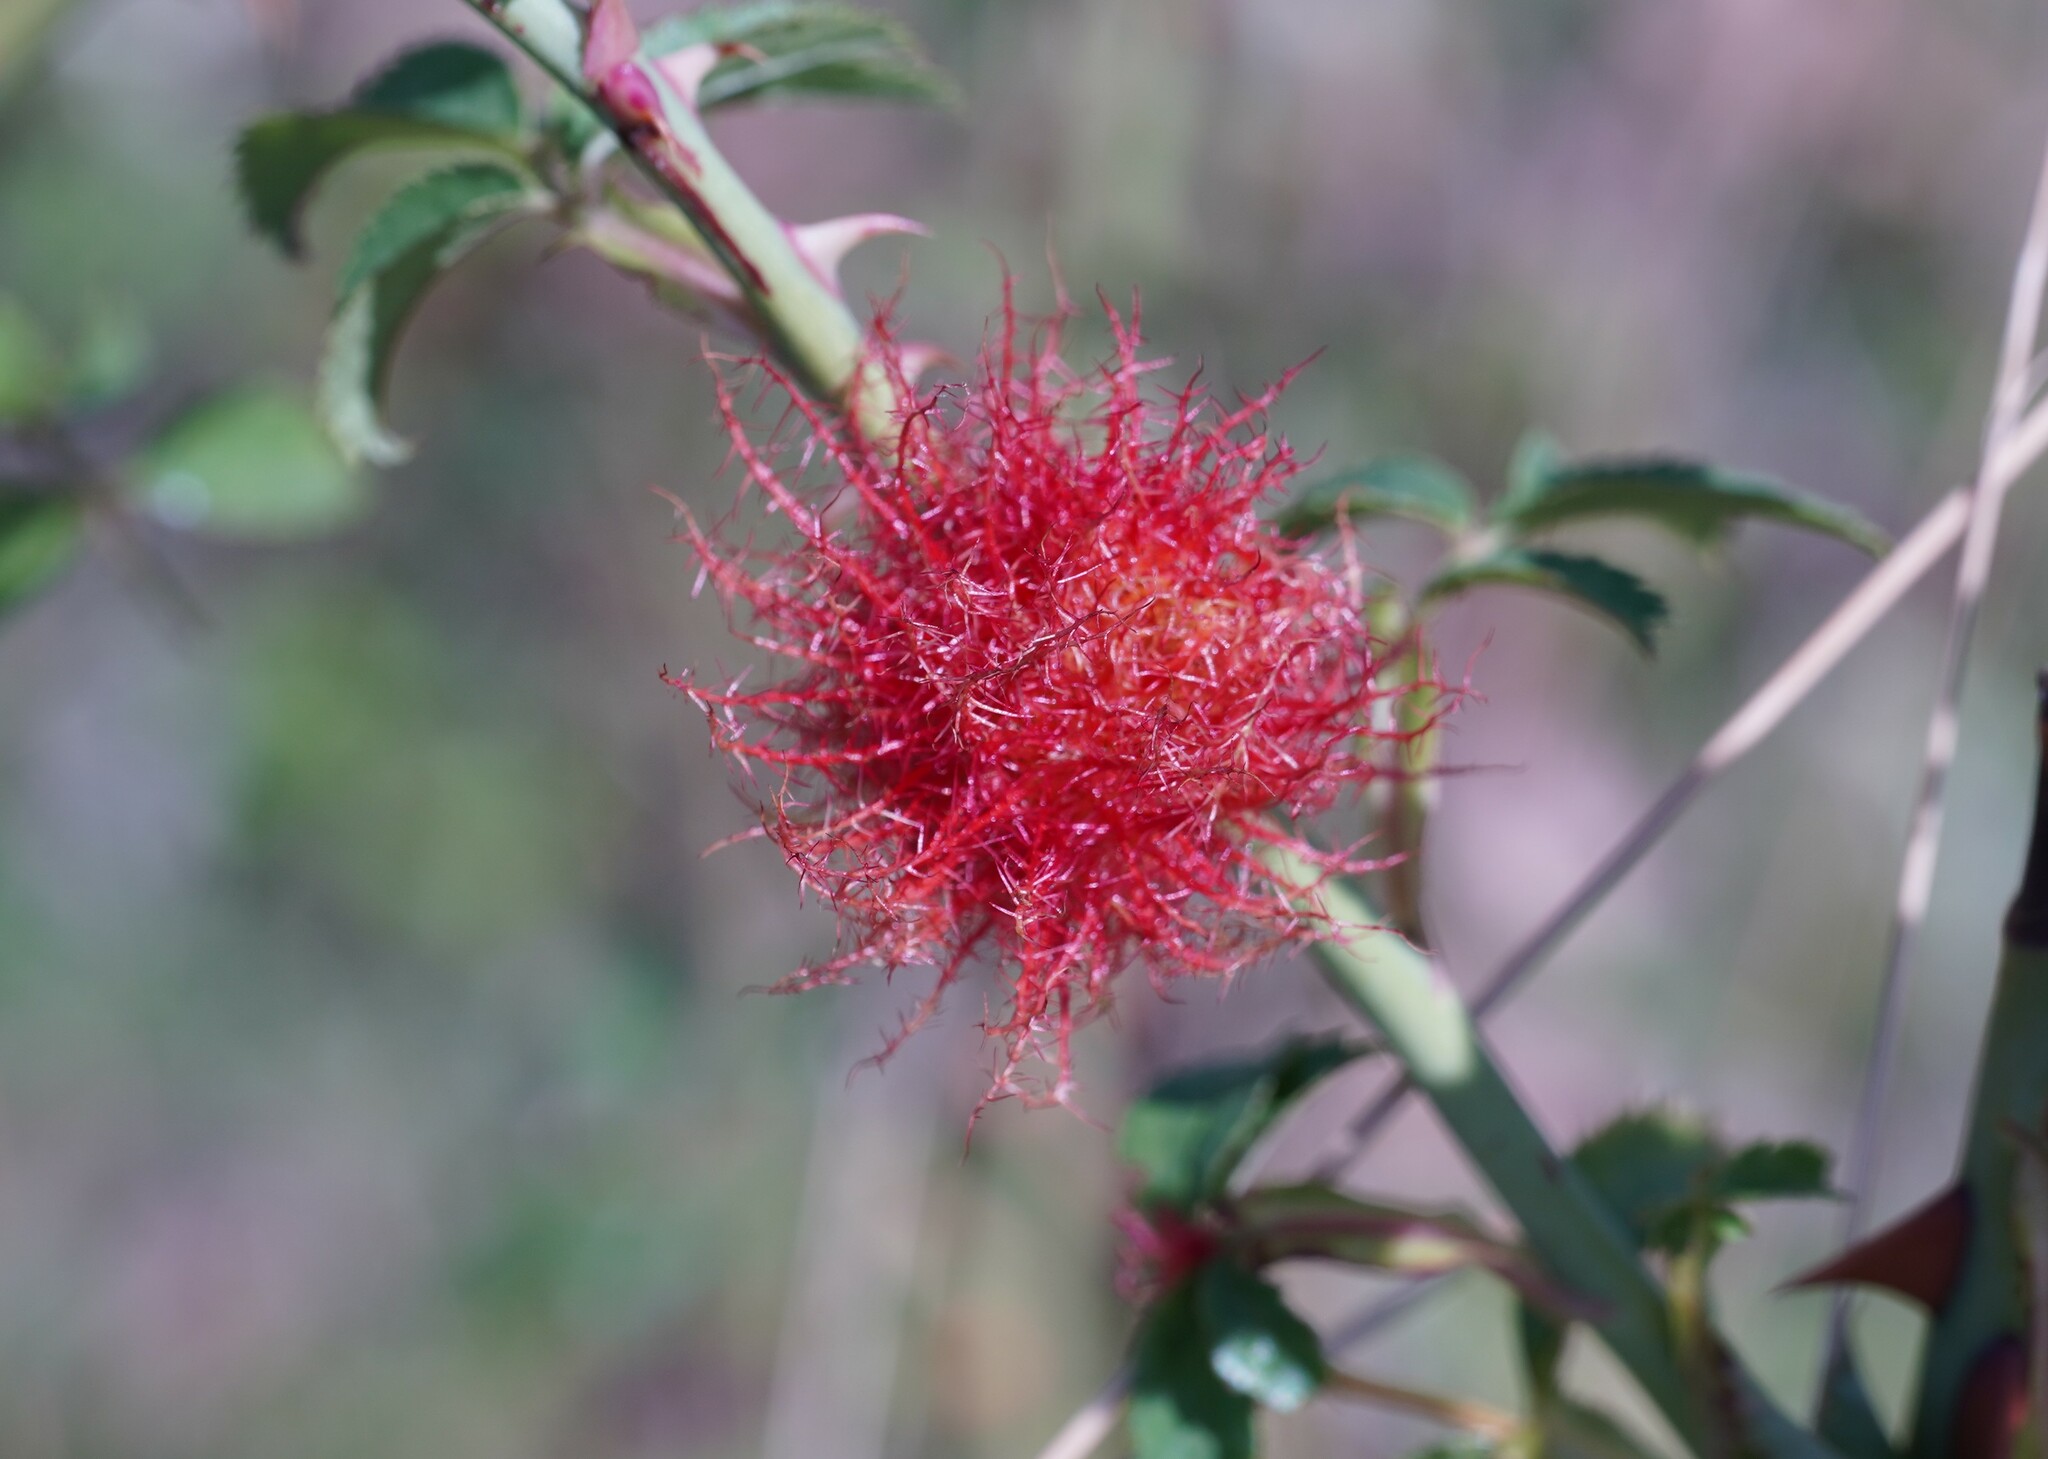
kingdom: Animalia
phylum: Arthropoda
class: Insecta
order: Hymenoptera
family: Cynipidae
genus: Diplolepis
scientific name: Diplolepis rosae
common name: Bedeguar gall
